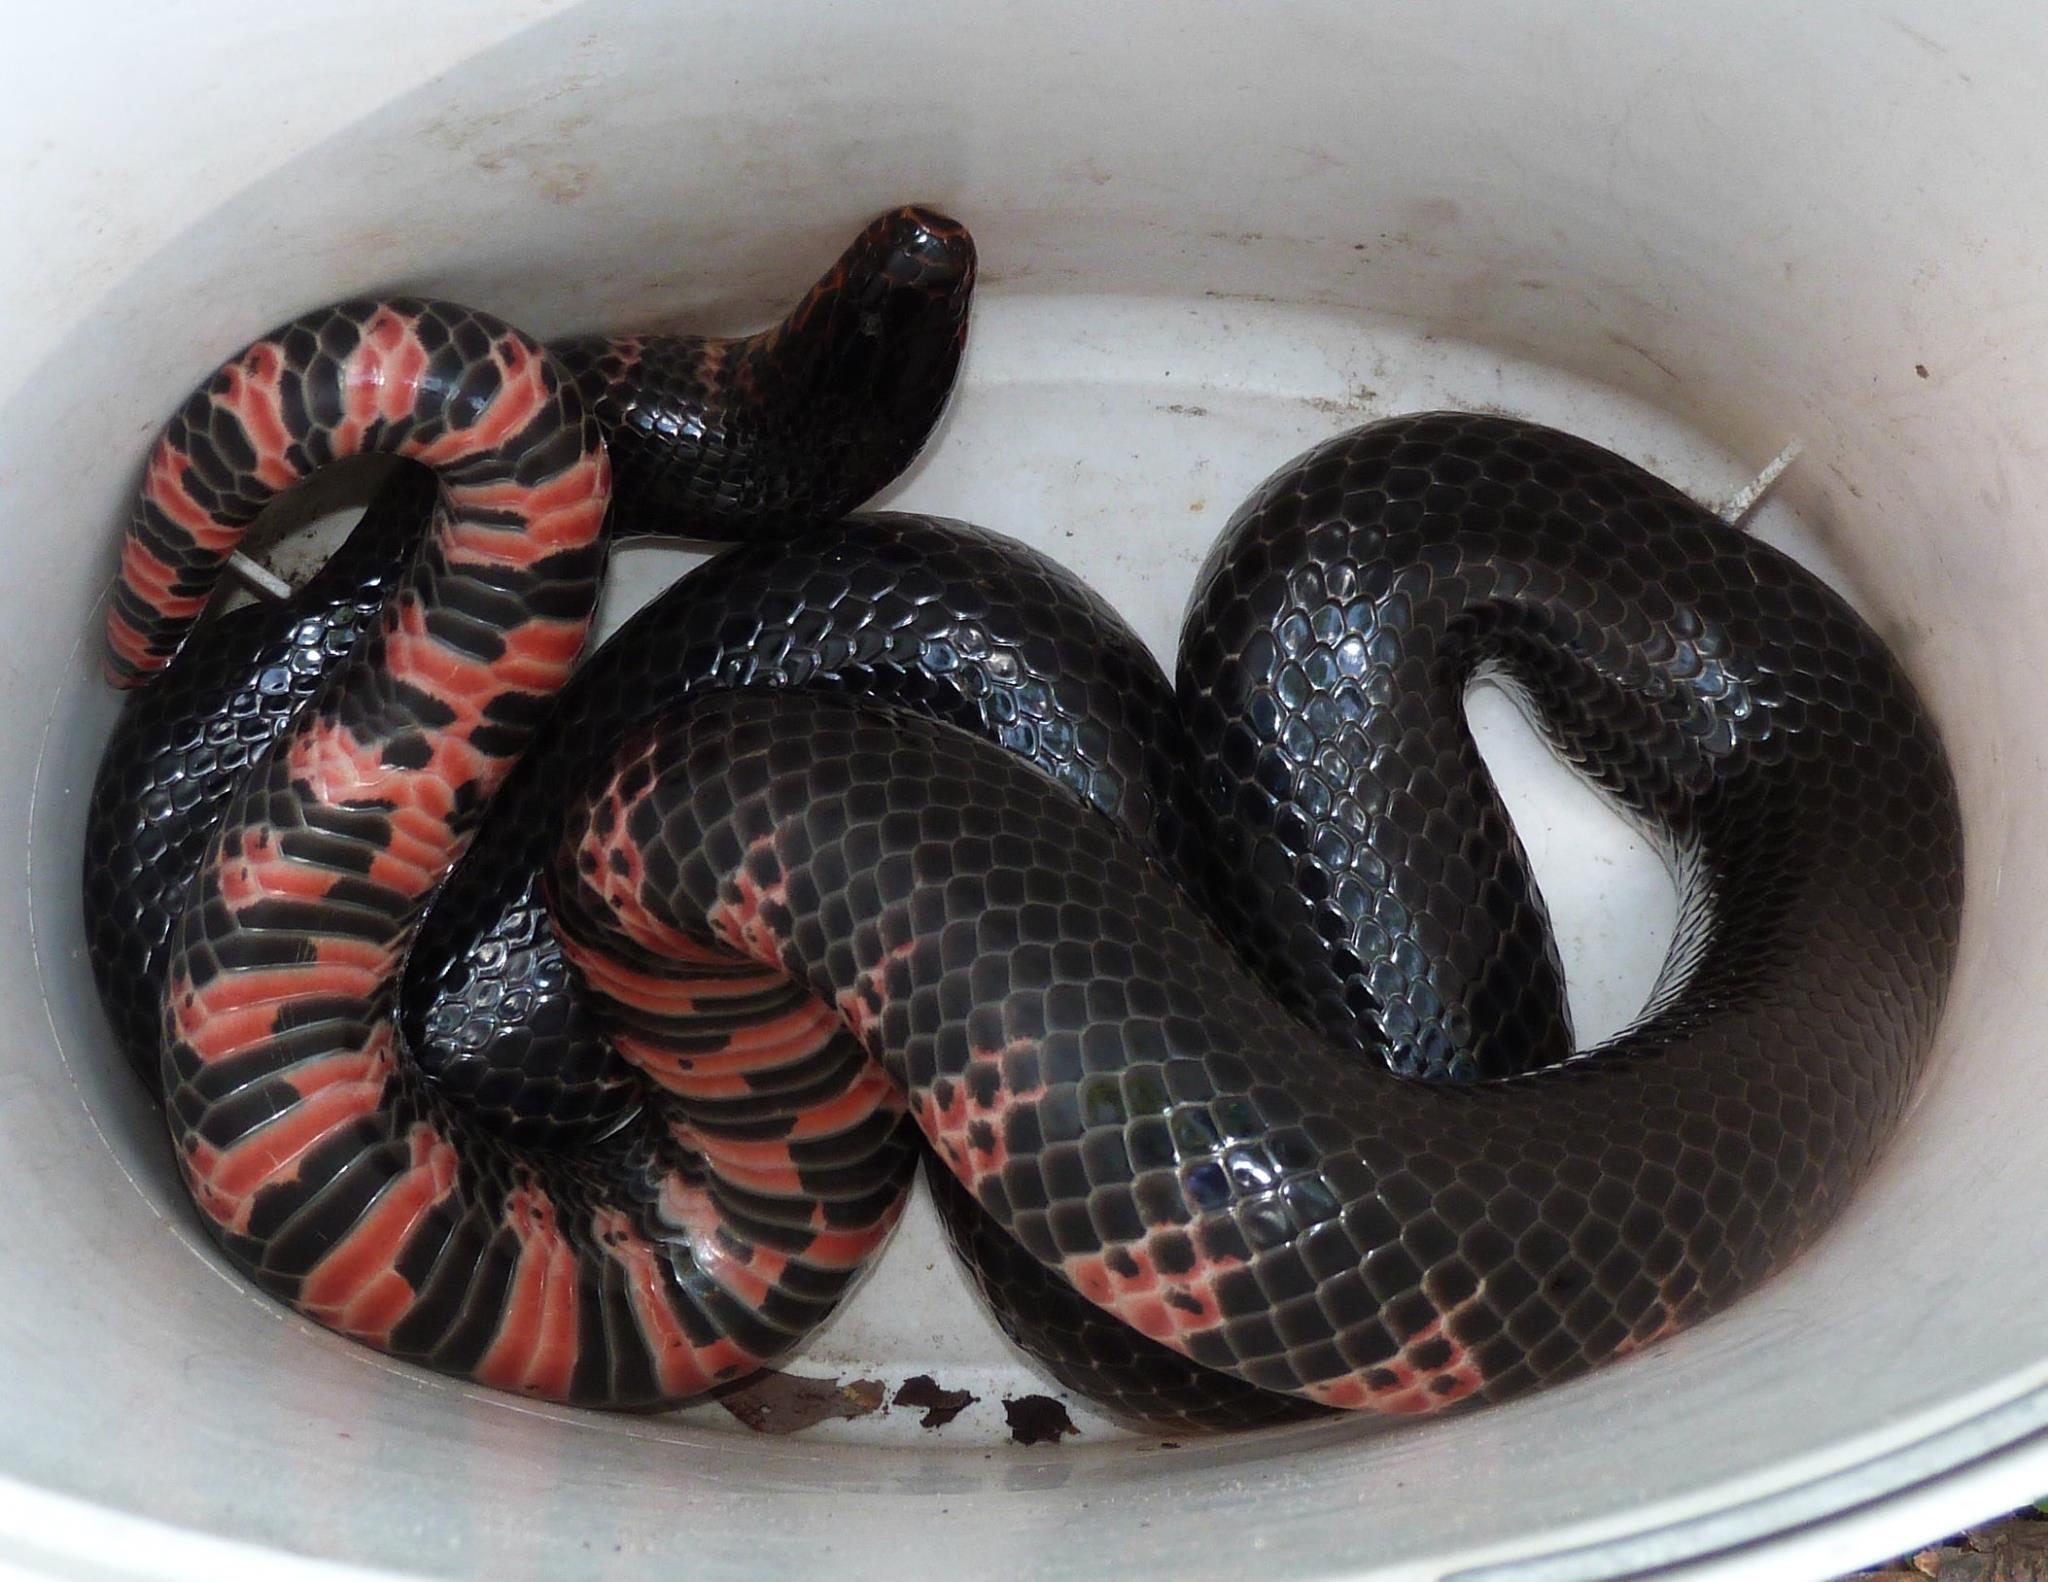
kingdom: Animalia
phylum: Chordata
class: Squamata
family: Colubridae
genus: Farancia
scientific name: Farancia abacura
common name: Mud snake
